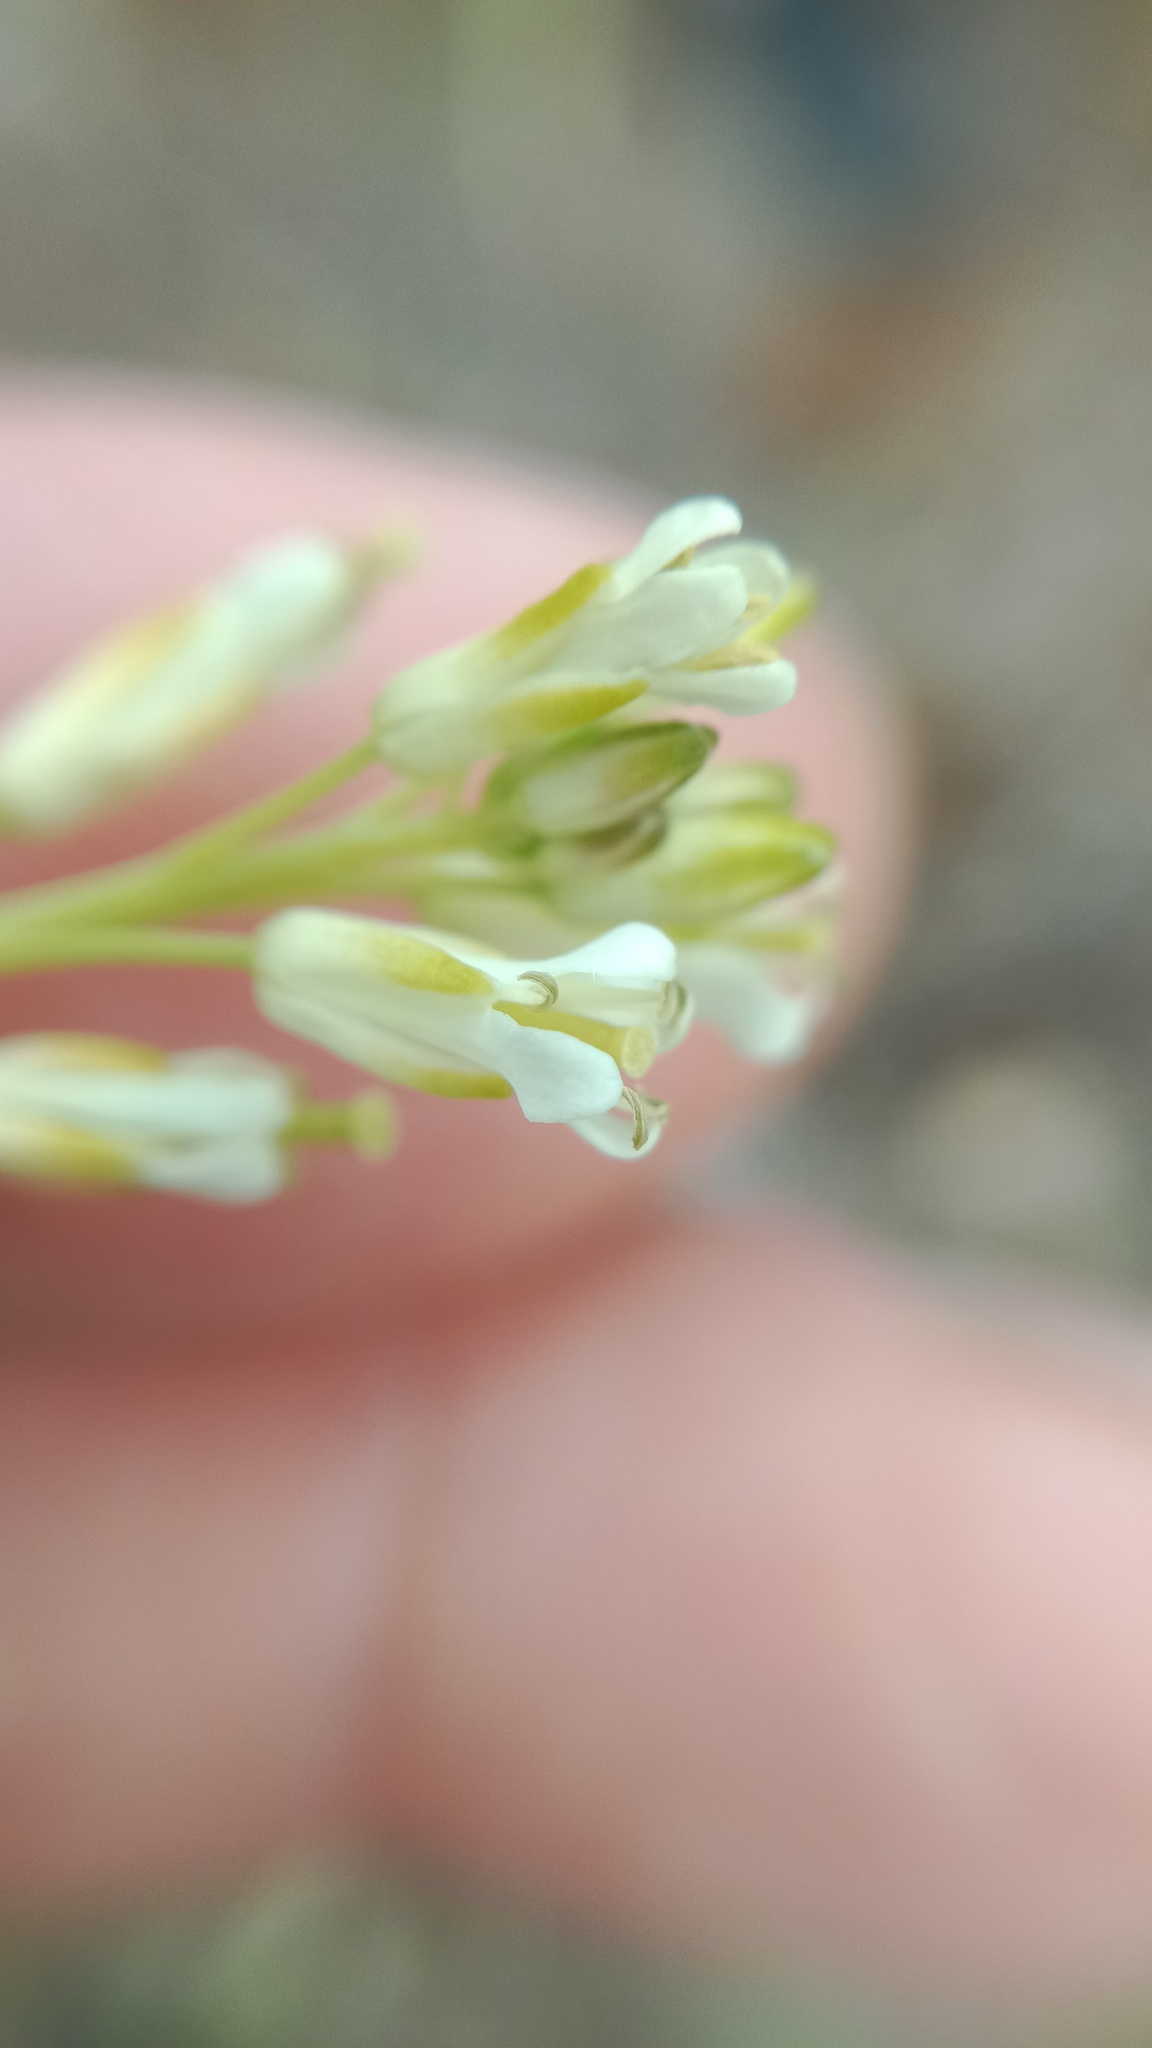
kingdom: Plantae
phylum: Tracheophyta
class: Magnoliopsida
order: Brassicales
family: Brassicaceae
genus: Turritis
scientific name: Turritis glabra
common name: Tower rockcress
